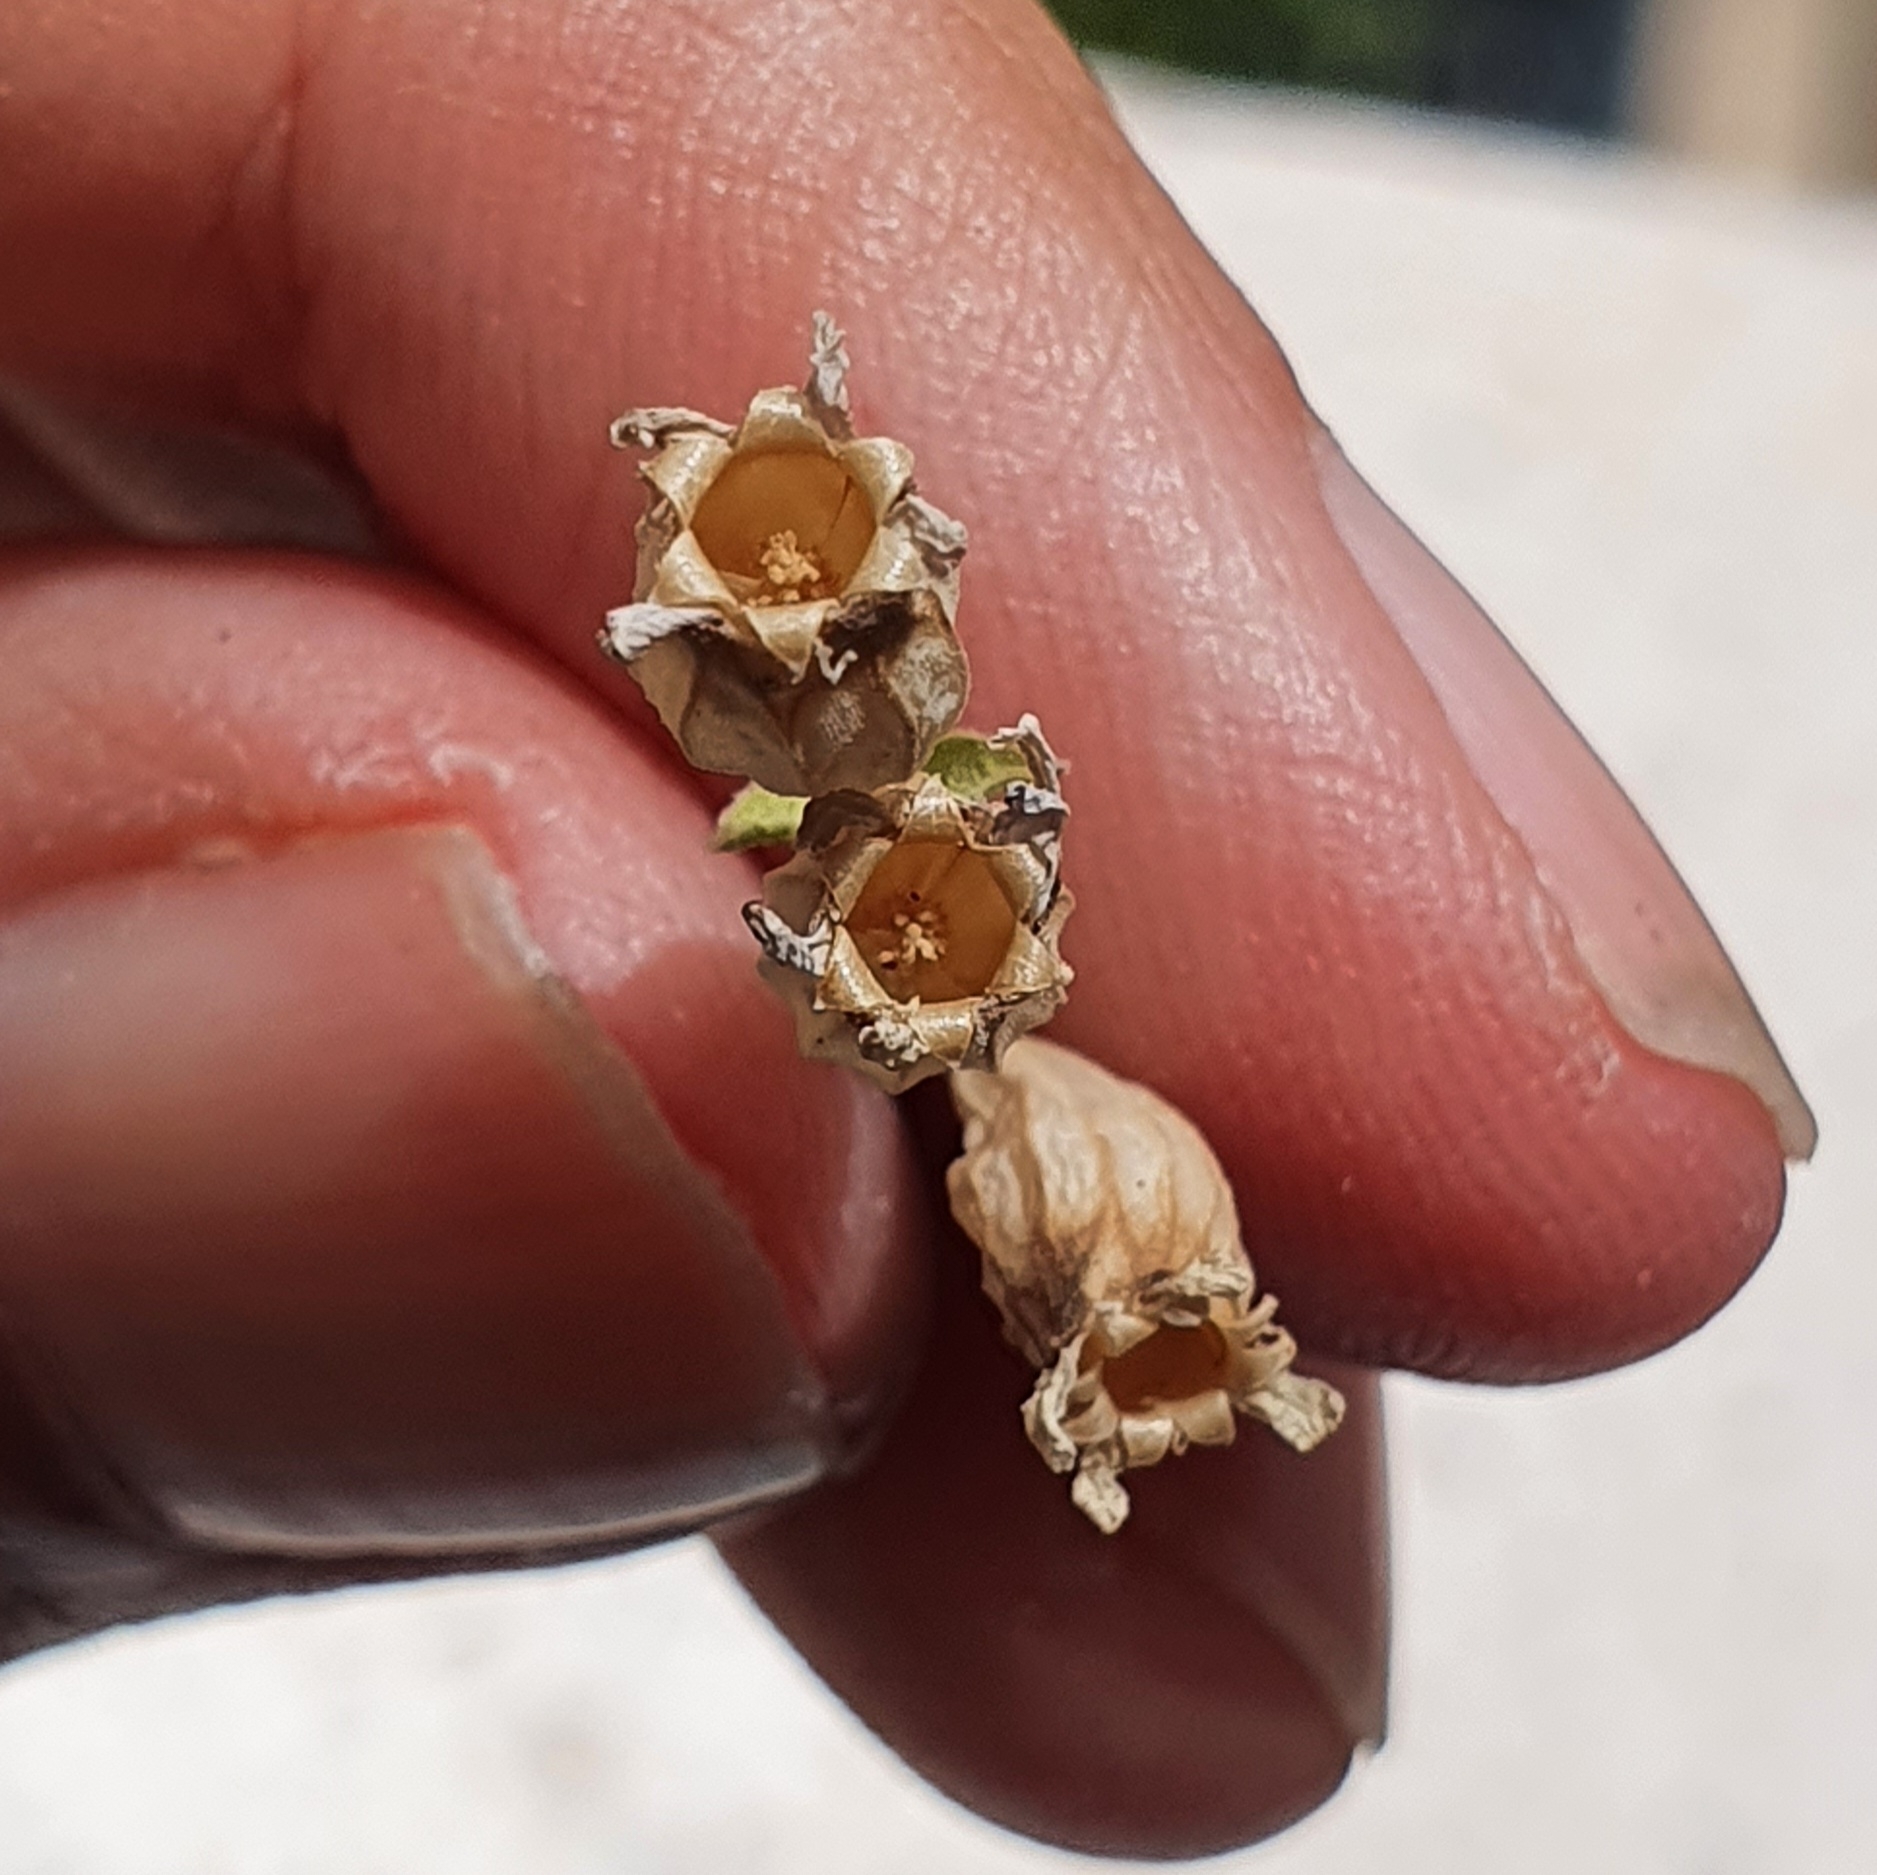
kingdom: Plantae
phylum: Tracheophyta
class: Magnoliopsida
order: Caryophyllales
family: Caryophyllaceae
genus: Silene
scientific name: Silene turbinata
